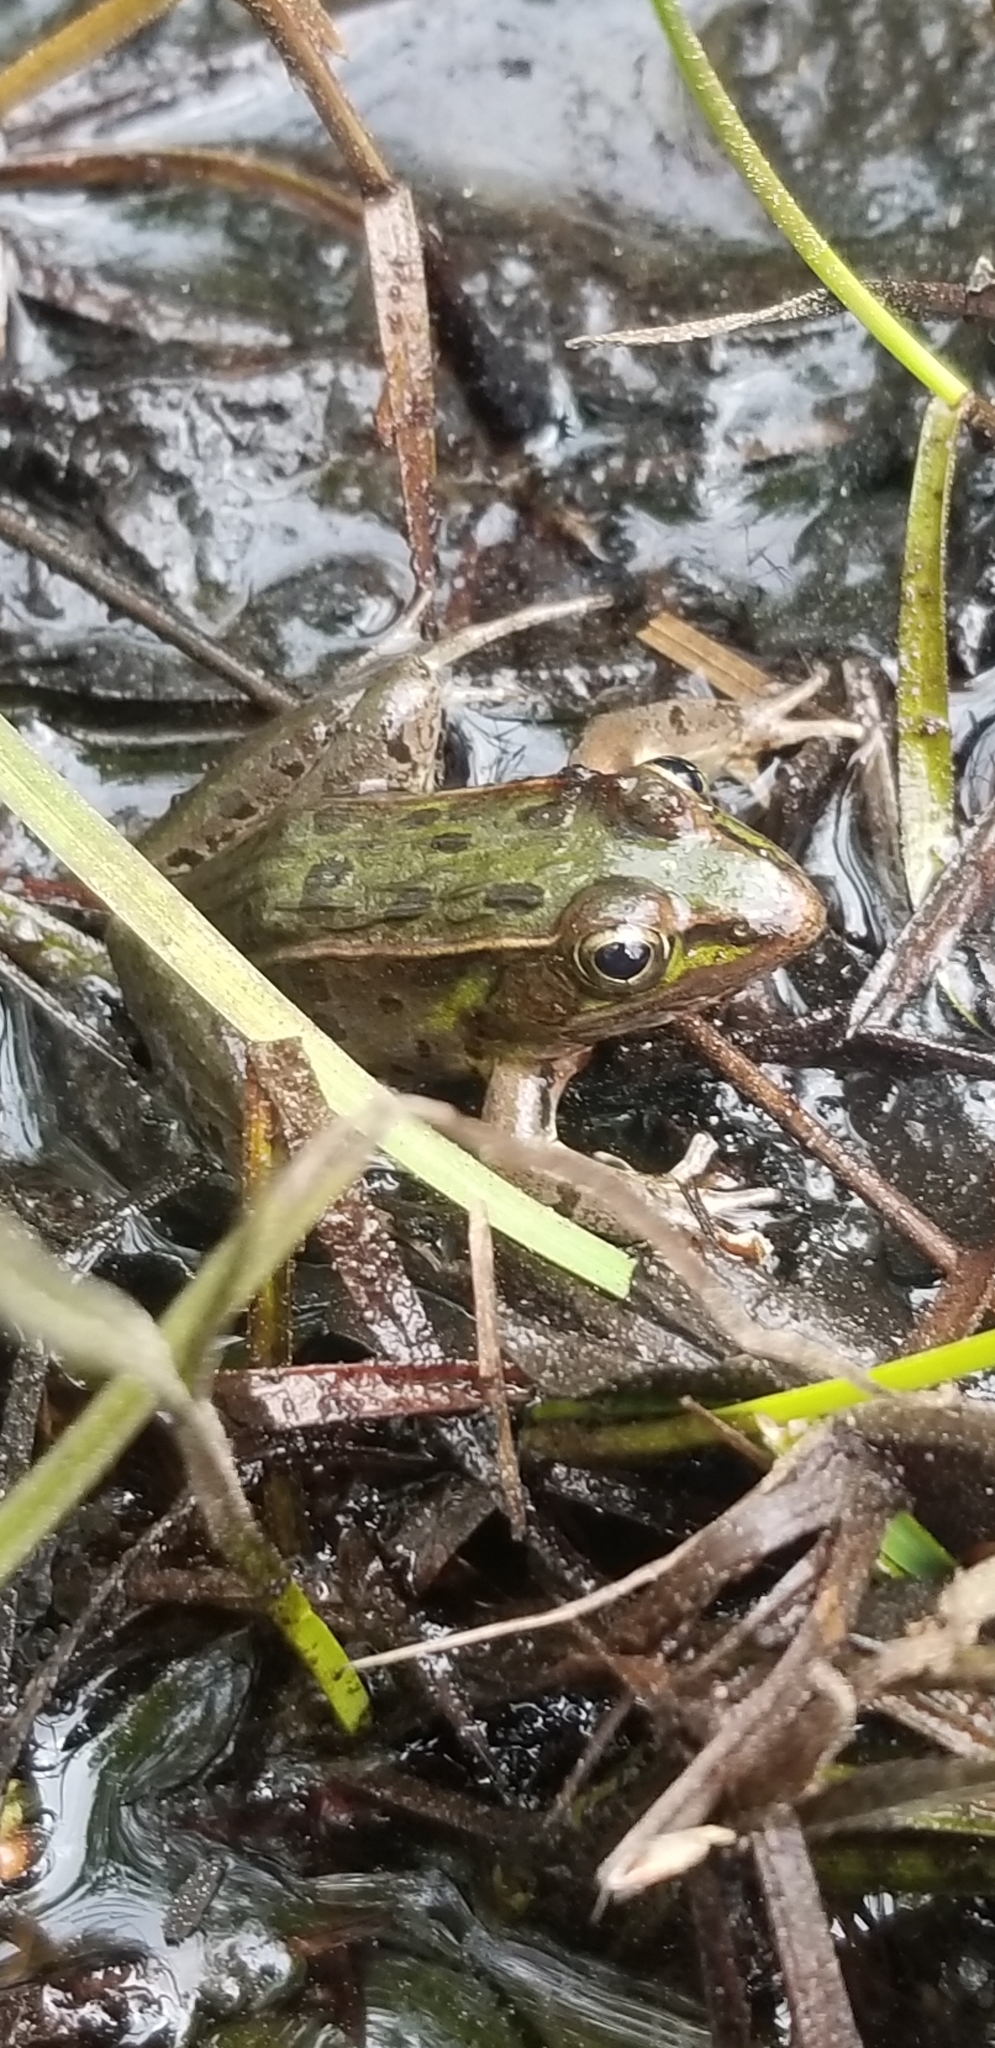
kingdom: Animalia
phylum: Chordata
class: Amphibia
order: Anura
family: Ranidae
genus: Lithobates
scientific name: Lithobates sphenocephalus
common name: Southern leopard frog
